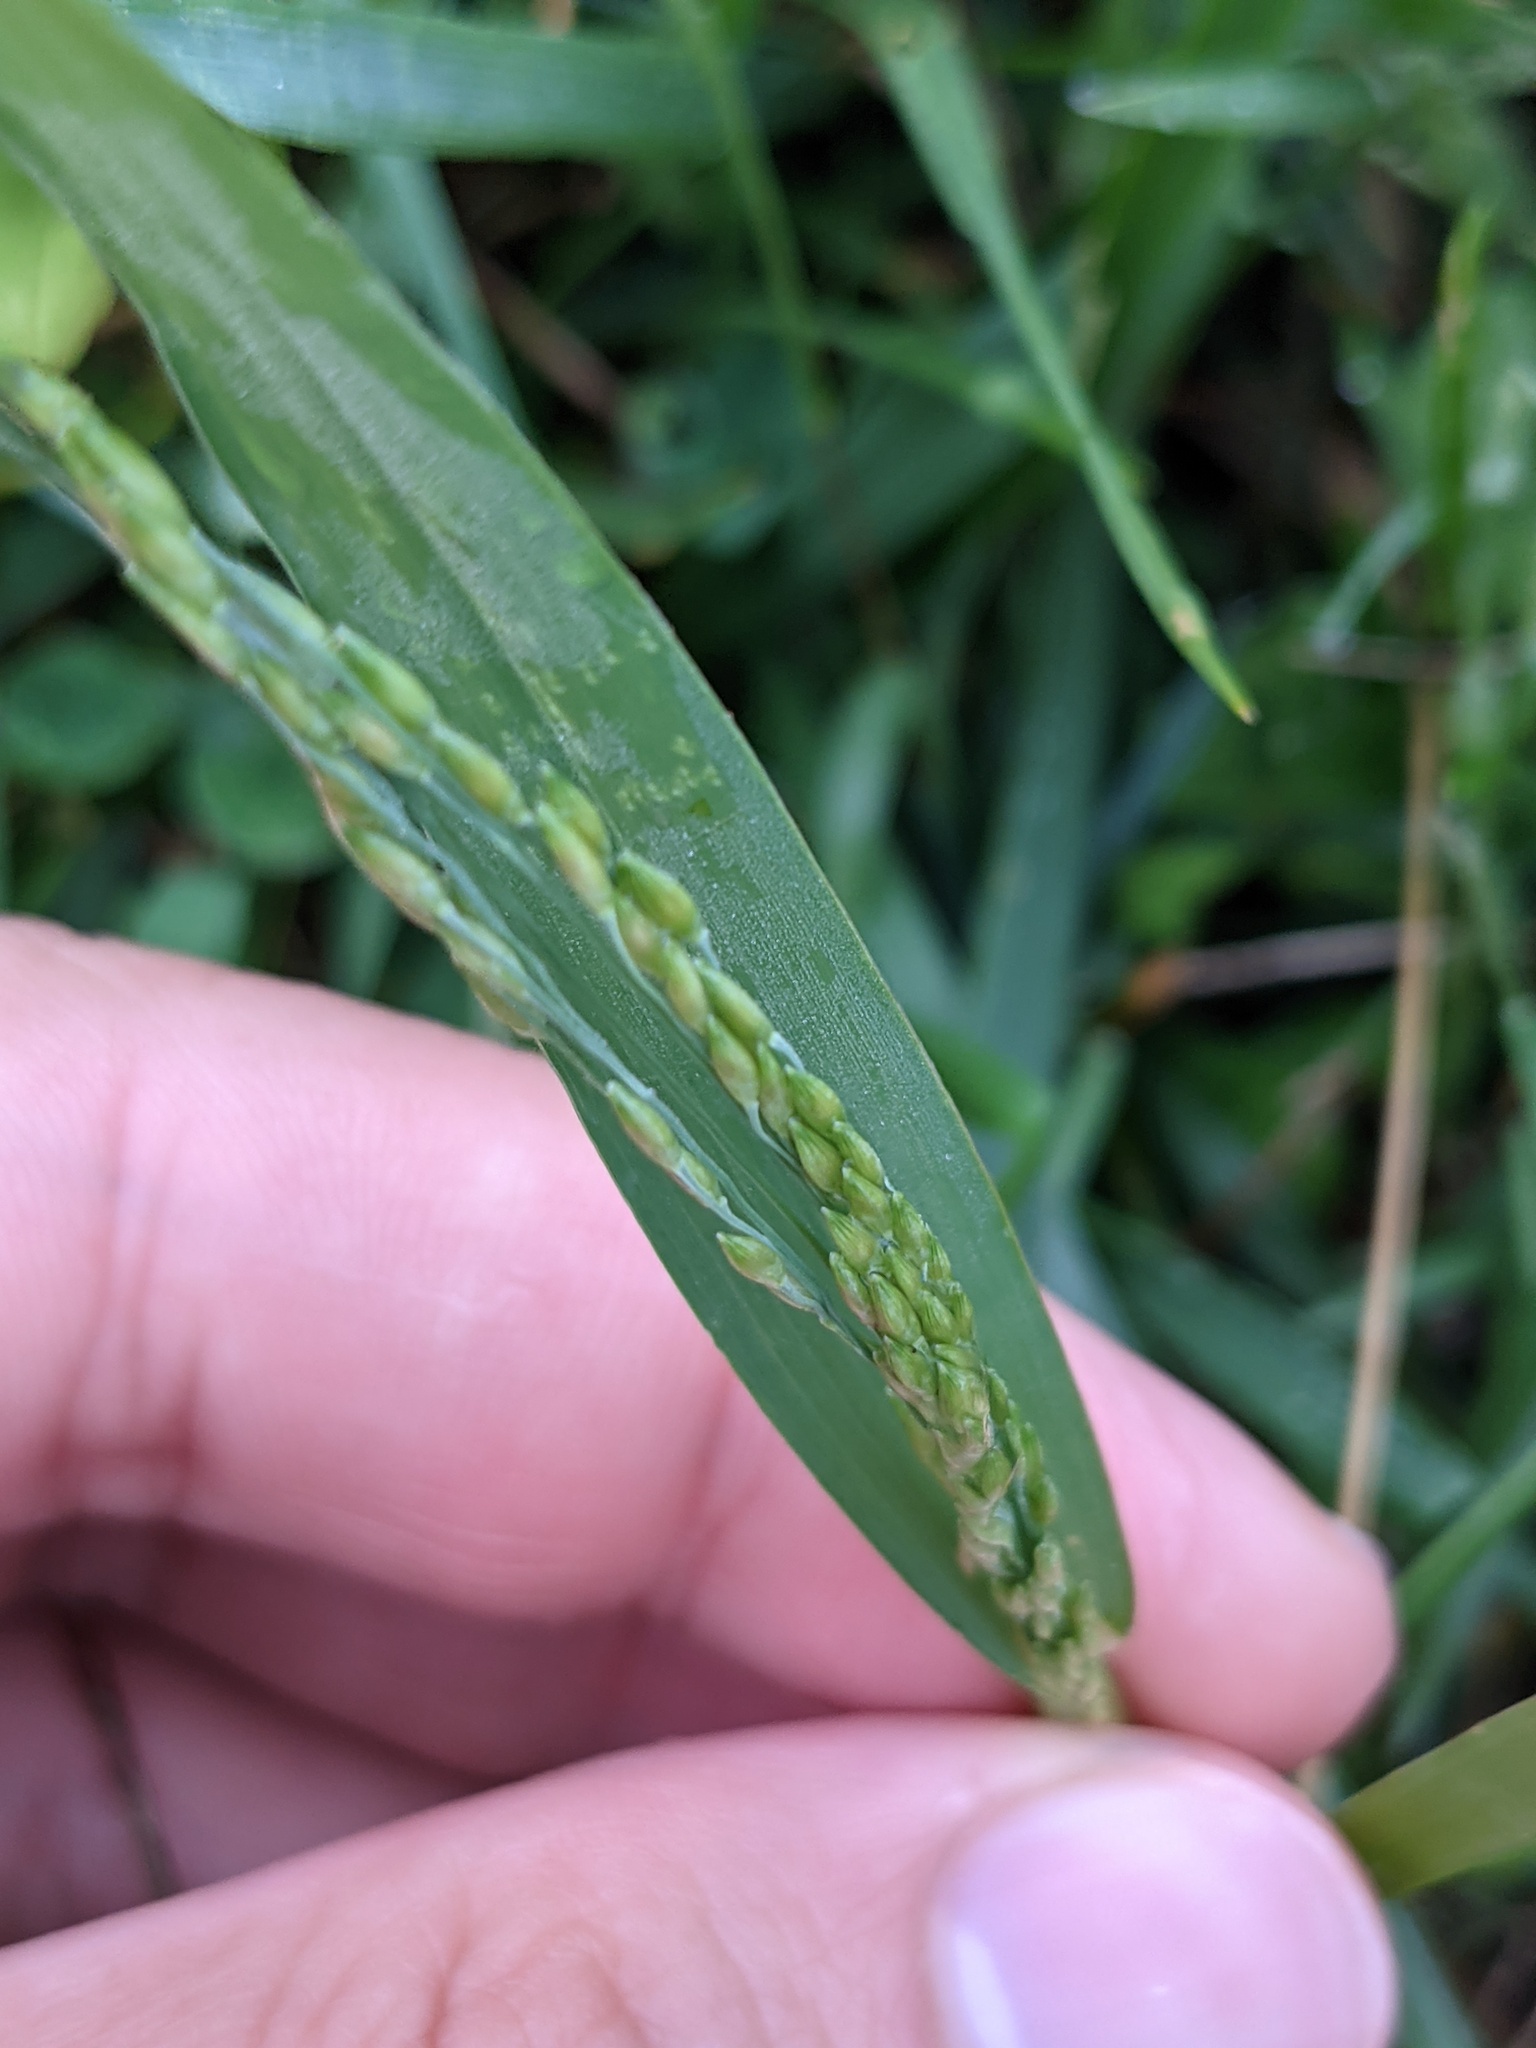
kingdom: Plantae
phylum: Tracheophyta
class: Liliopsida
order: Poales
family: Poaceae
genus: Panicum
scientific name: Panicum dichotomiflorum
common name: Autumn millet
